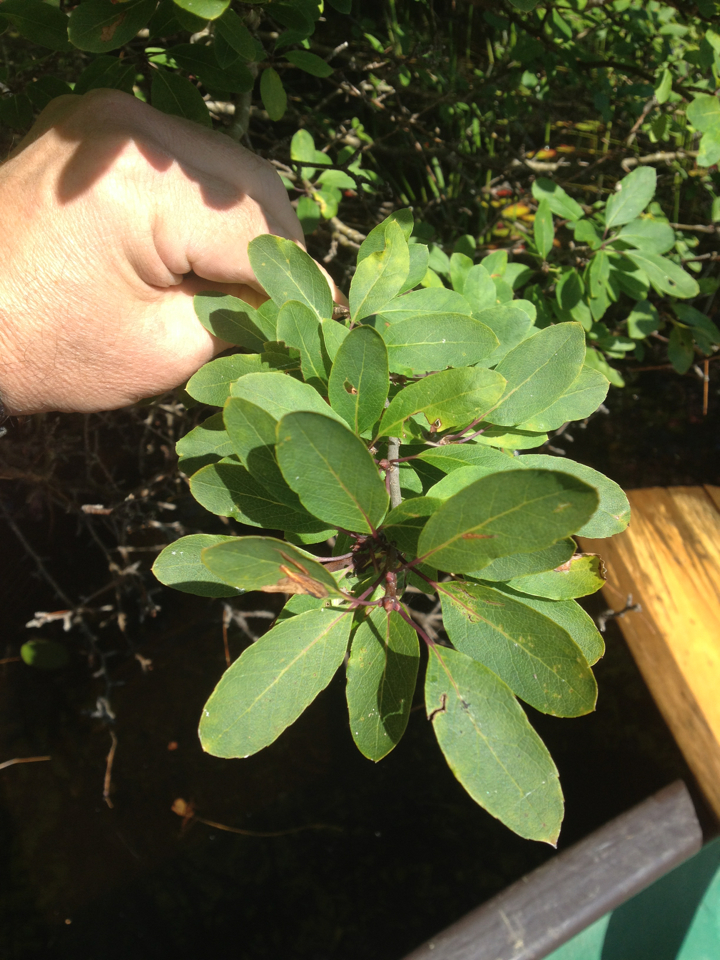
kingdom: Plantae
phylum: Tracheophyta
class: Magnoliopsida
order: Aquifoliales
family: Aquifoliaceae
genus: Ilex
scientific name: Ilex mucronata
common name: Catberry
